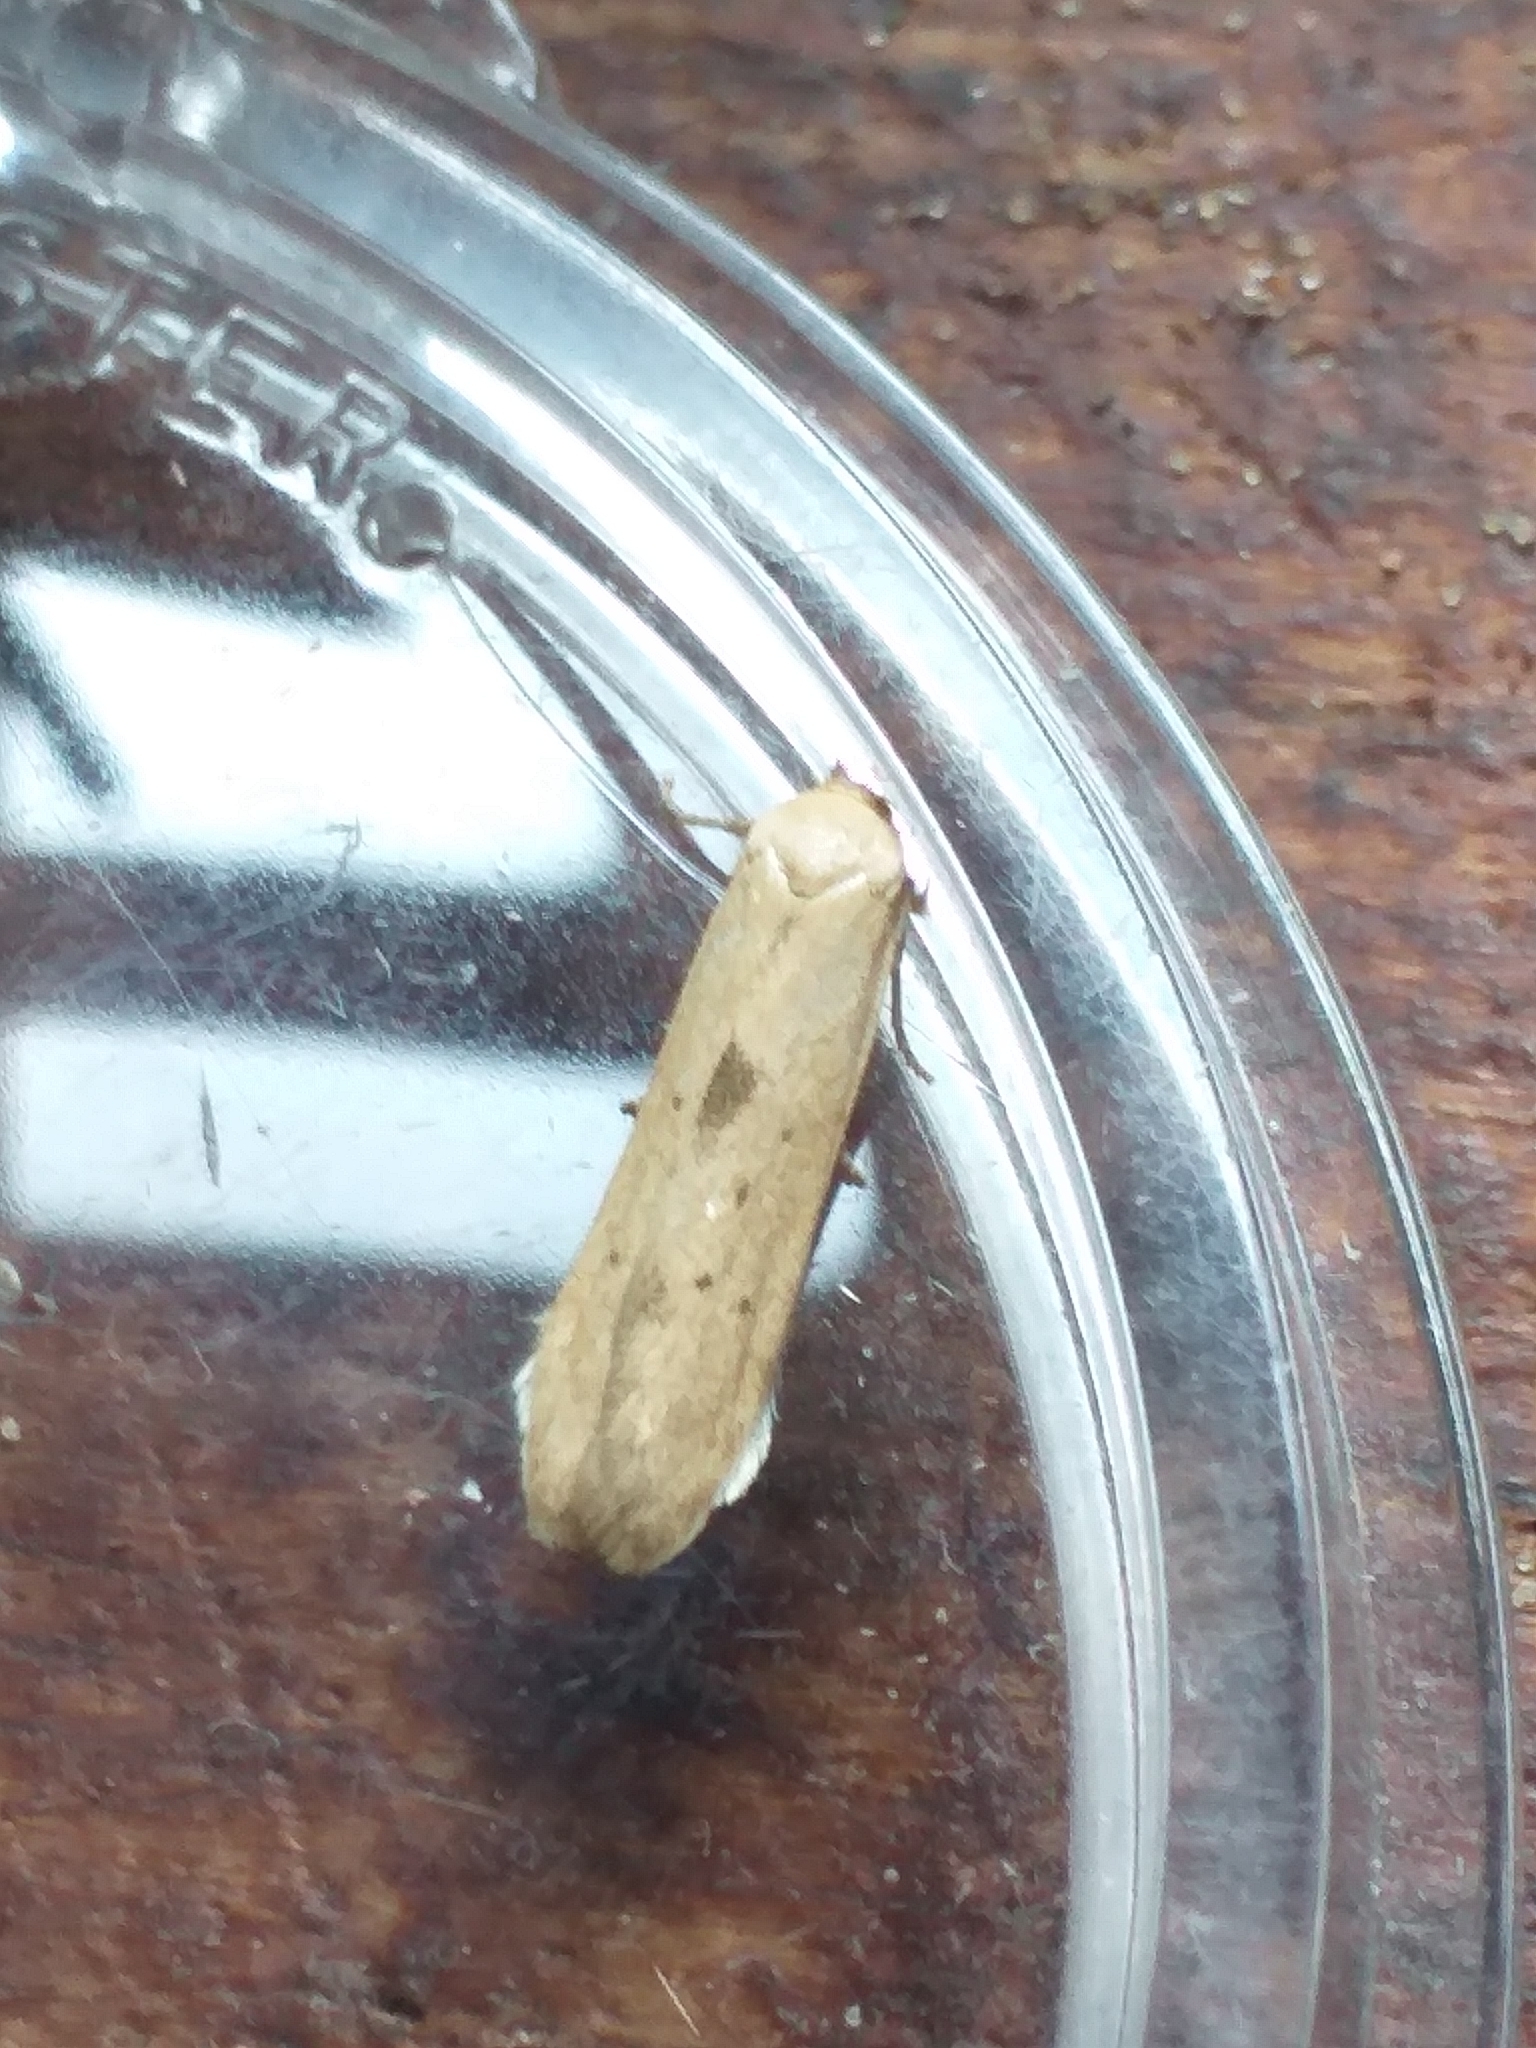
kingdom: Animalia
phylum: Arthropoda
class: Insecta
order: Lepidoptera
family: Blastobasidae
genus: Blastobasis
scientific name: Blastobasis lacticolella
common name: London dowd
